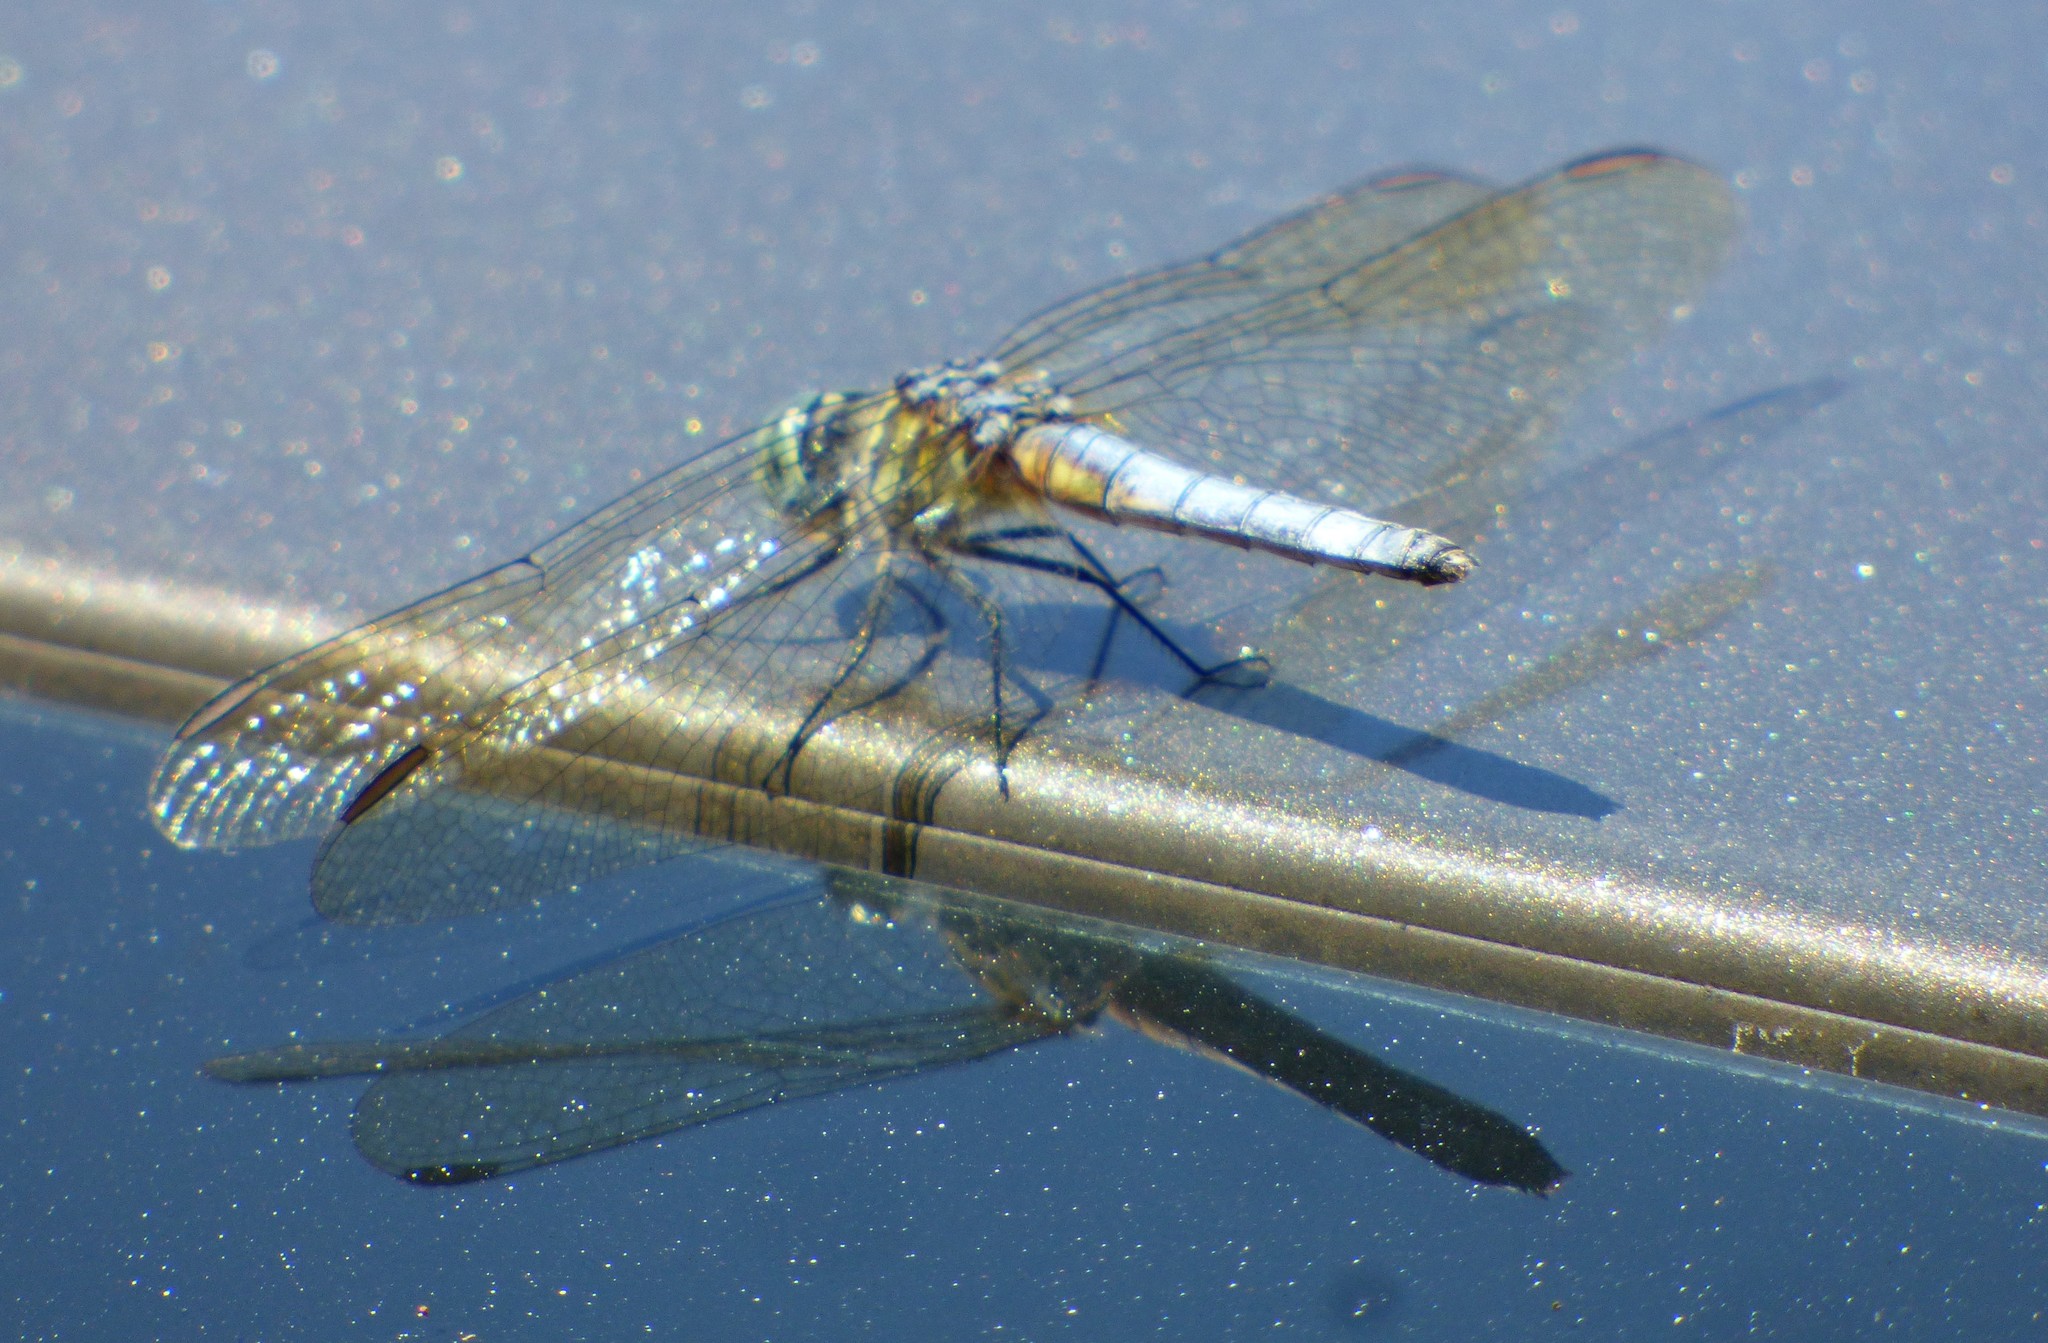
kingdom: Animalia
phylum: Arthropoda
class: Insecta
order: Odonata
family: Libellulidae
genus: Pachydiplax
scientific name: Pachydiplax longipennis
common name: Blue dasher
